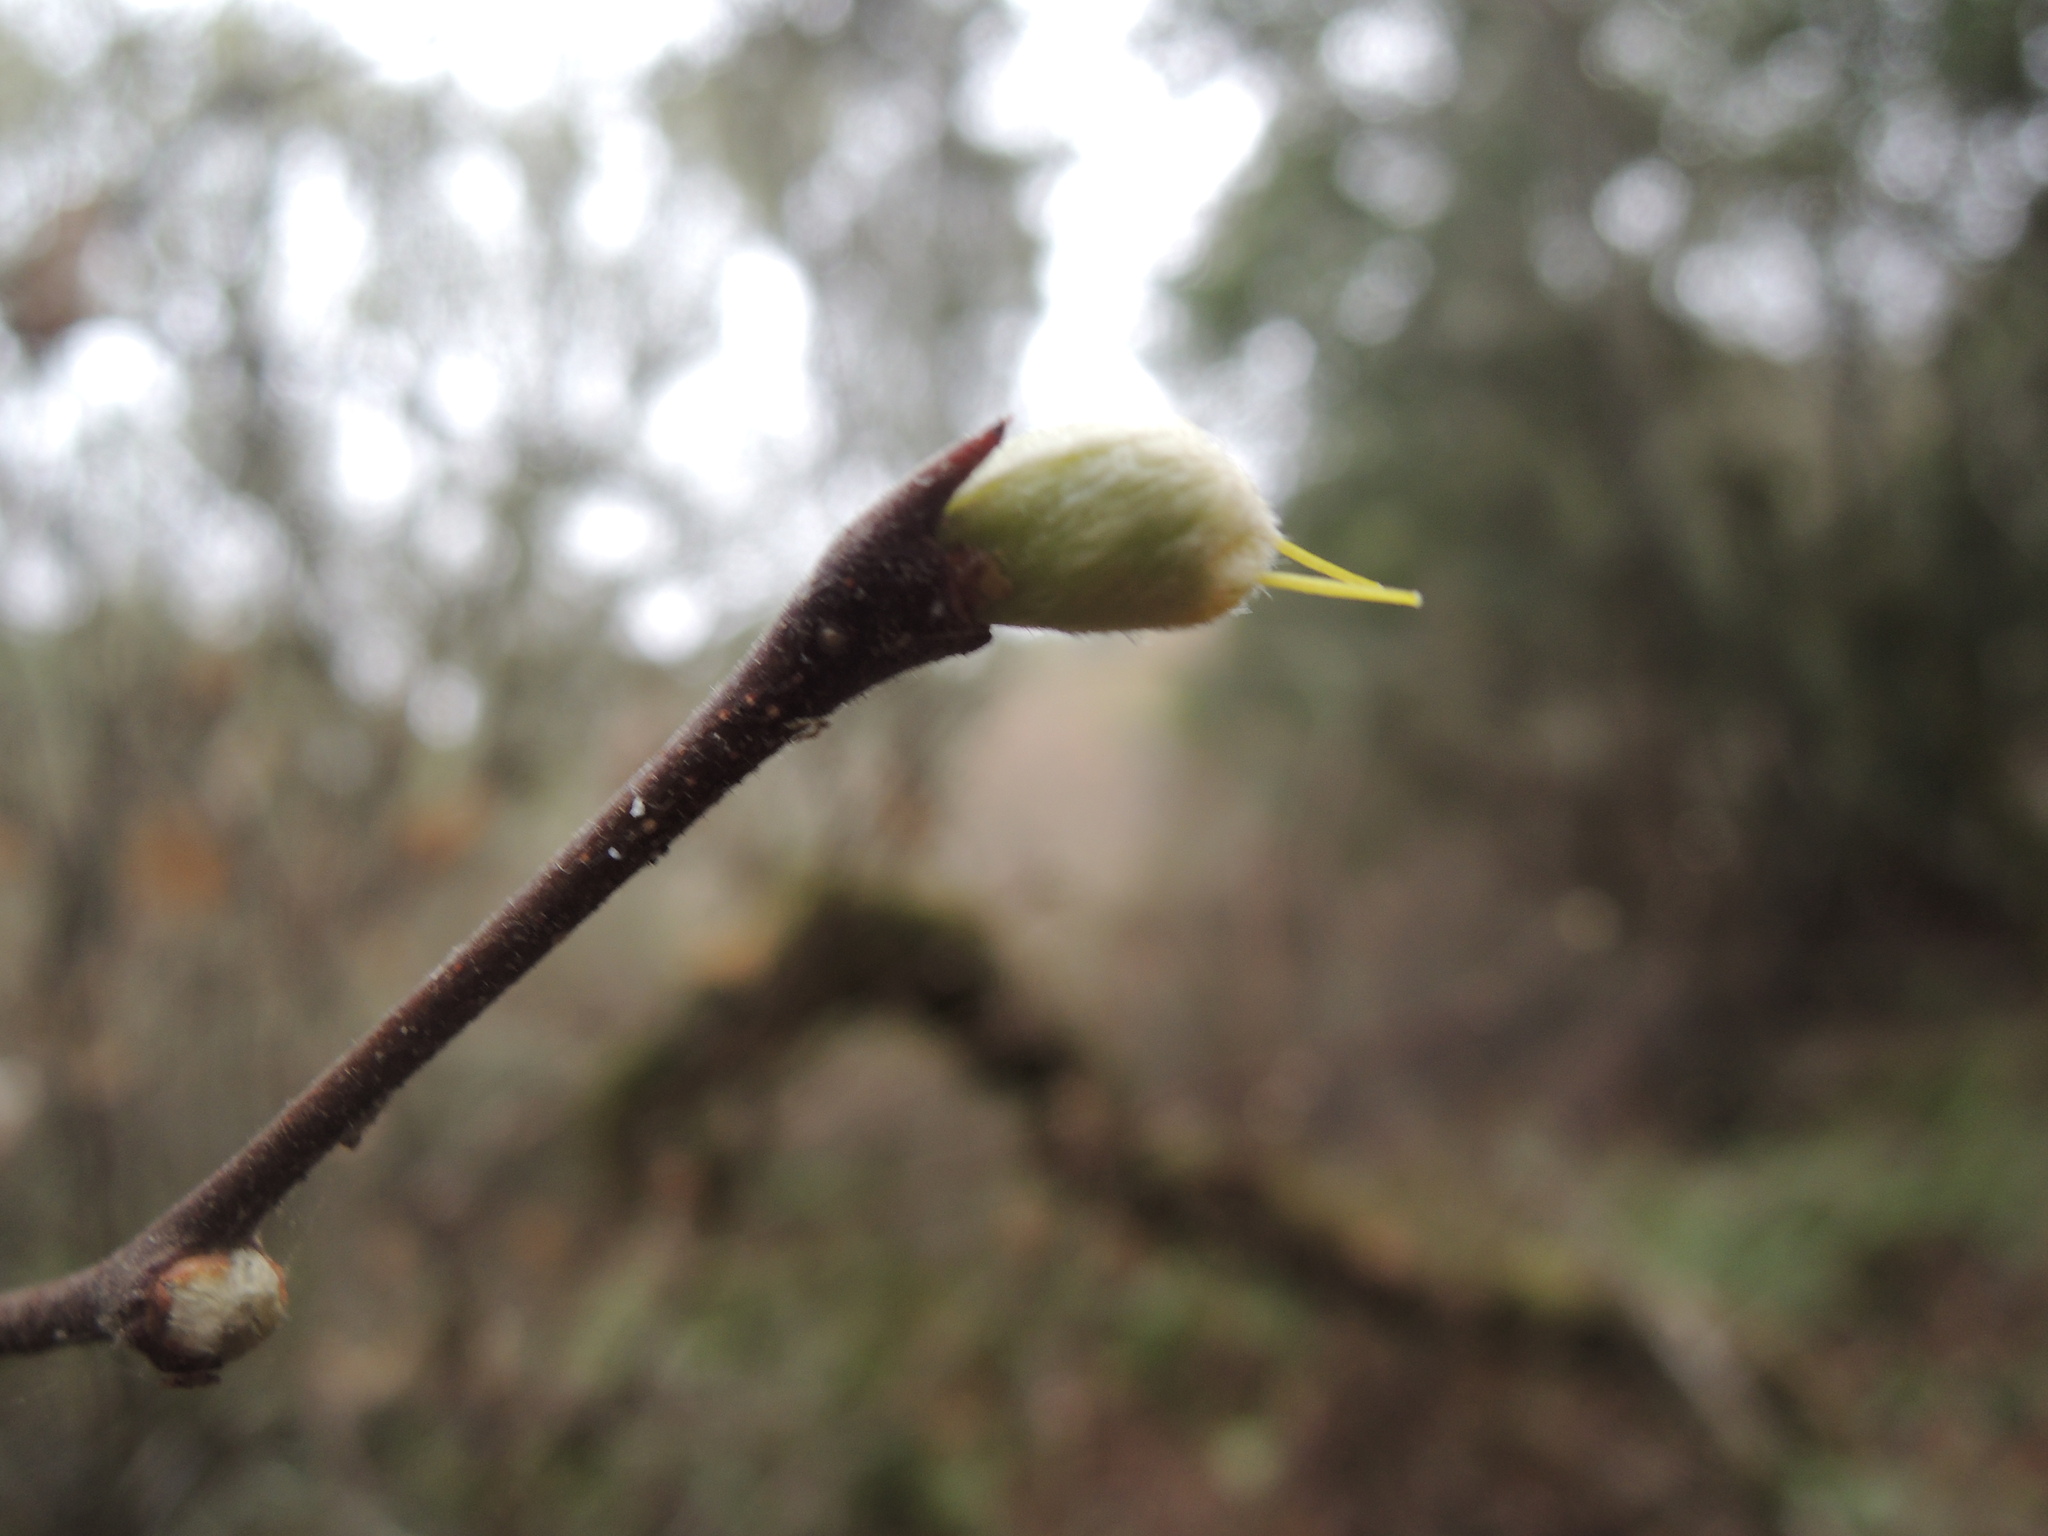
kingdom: Plantae
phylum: Tracheophyta
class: Magnoliopsida
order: Malvales
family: Thymelaeaceae
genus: Dirca
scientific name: Dirca occidentalis
